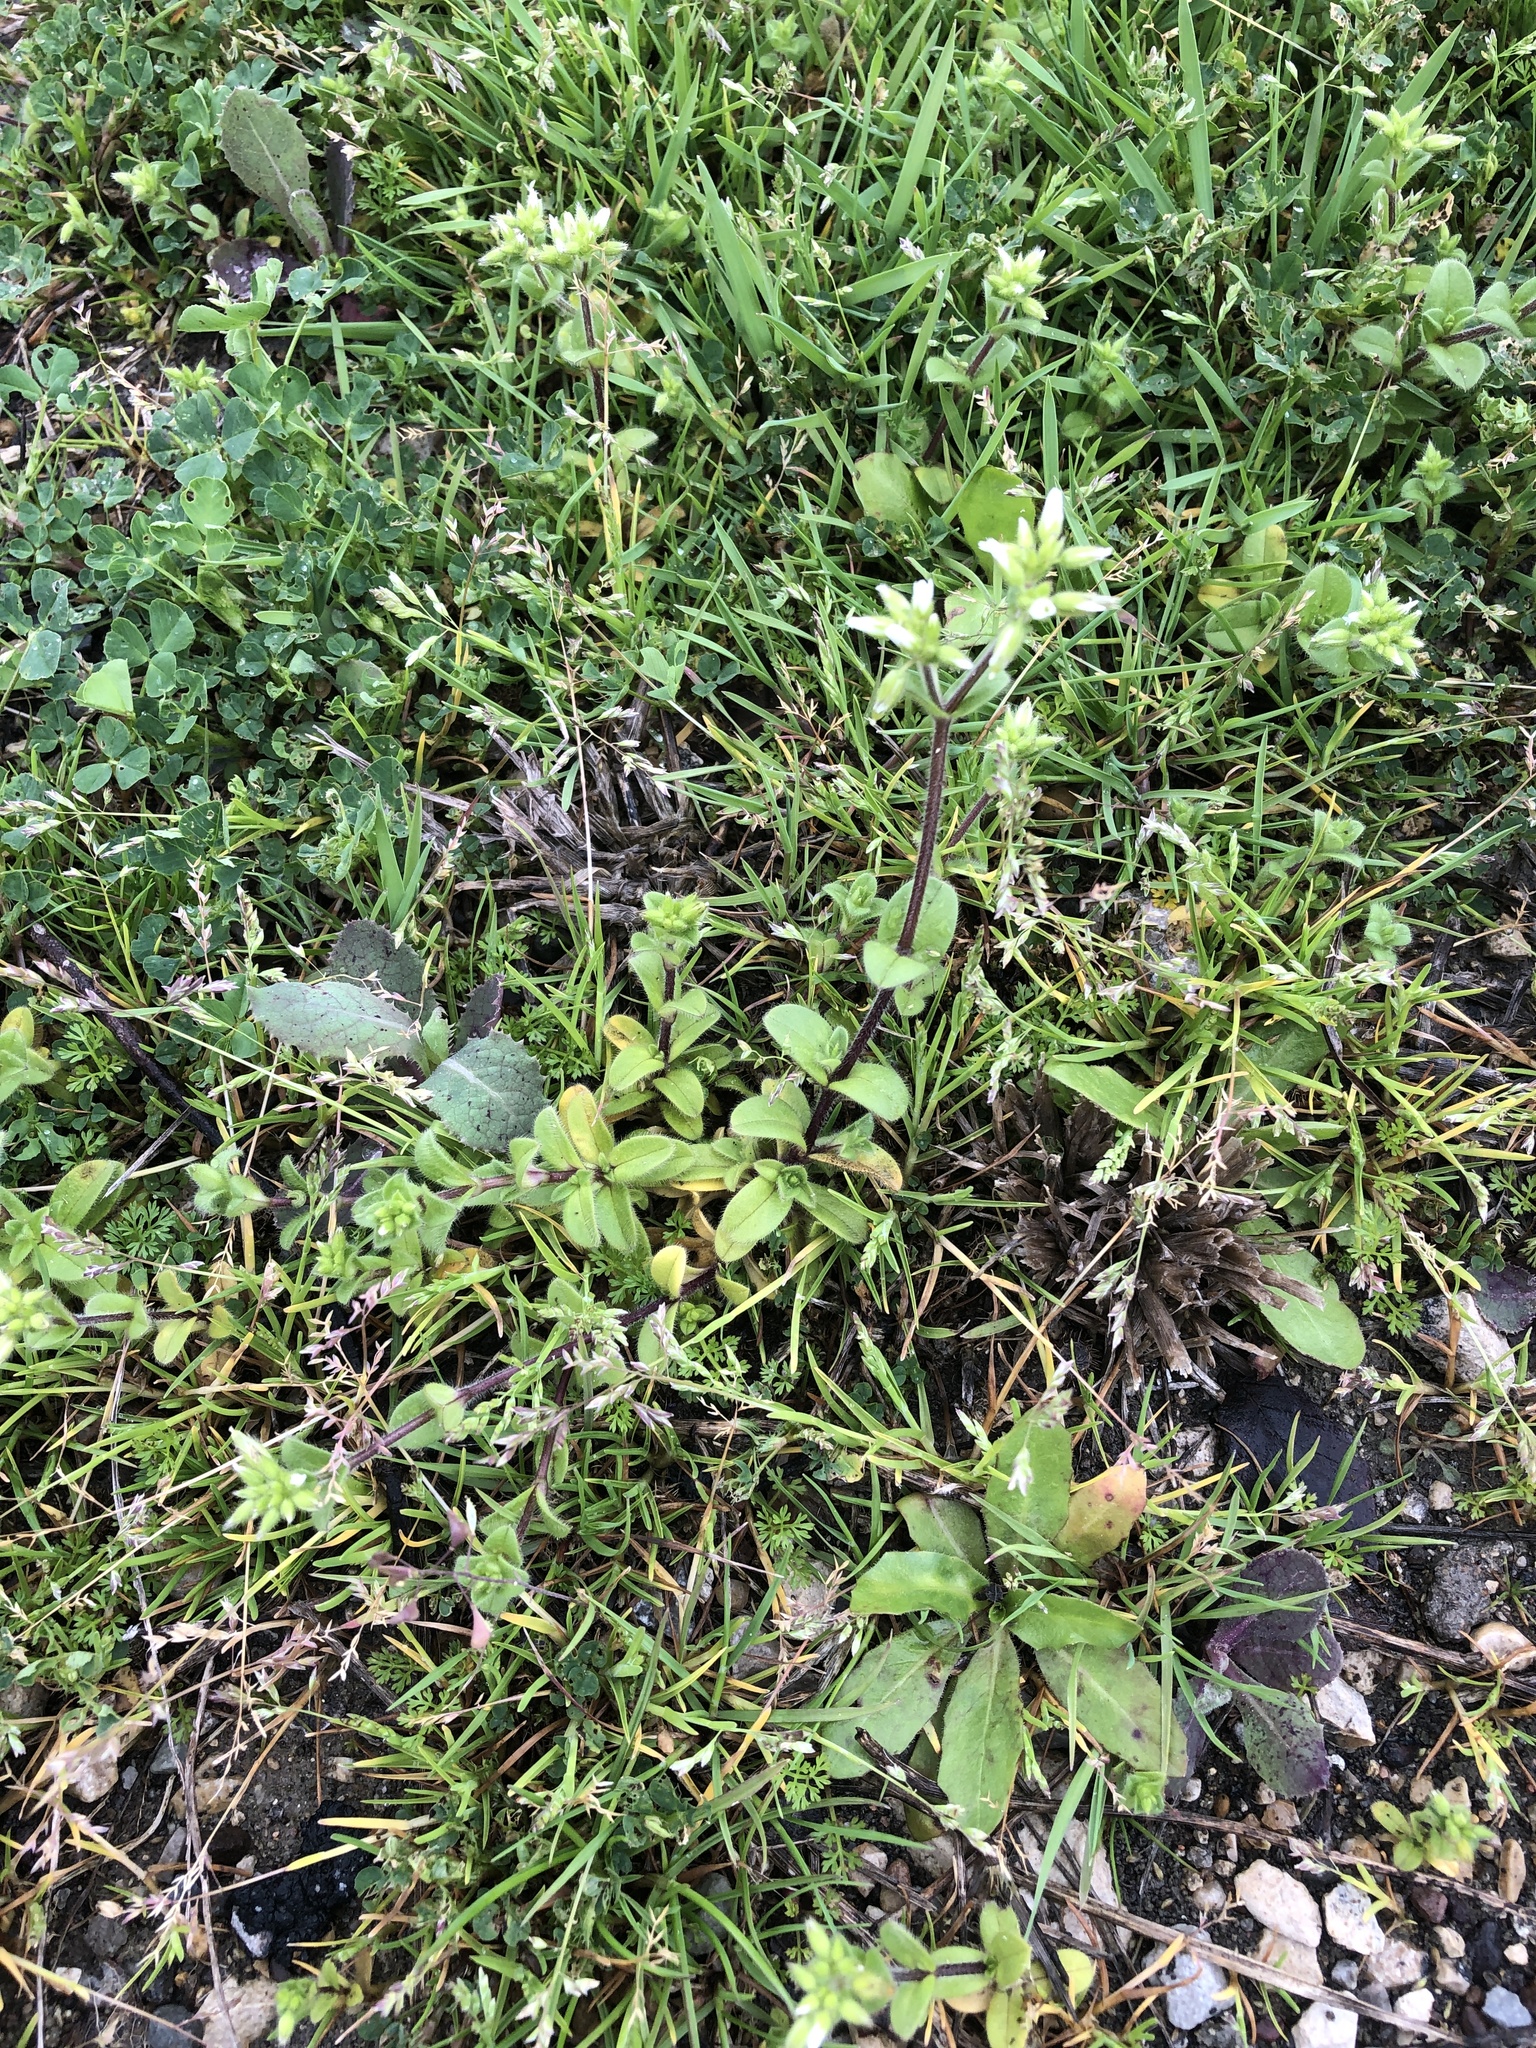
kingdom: Plantae
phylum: Tracheophyta
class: Magnoliopsida
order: Caryophyllales
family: Caryophyllaceae
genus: Cerastium
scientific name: Cerastium glomeratum
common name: Sticky chickweed
